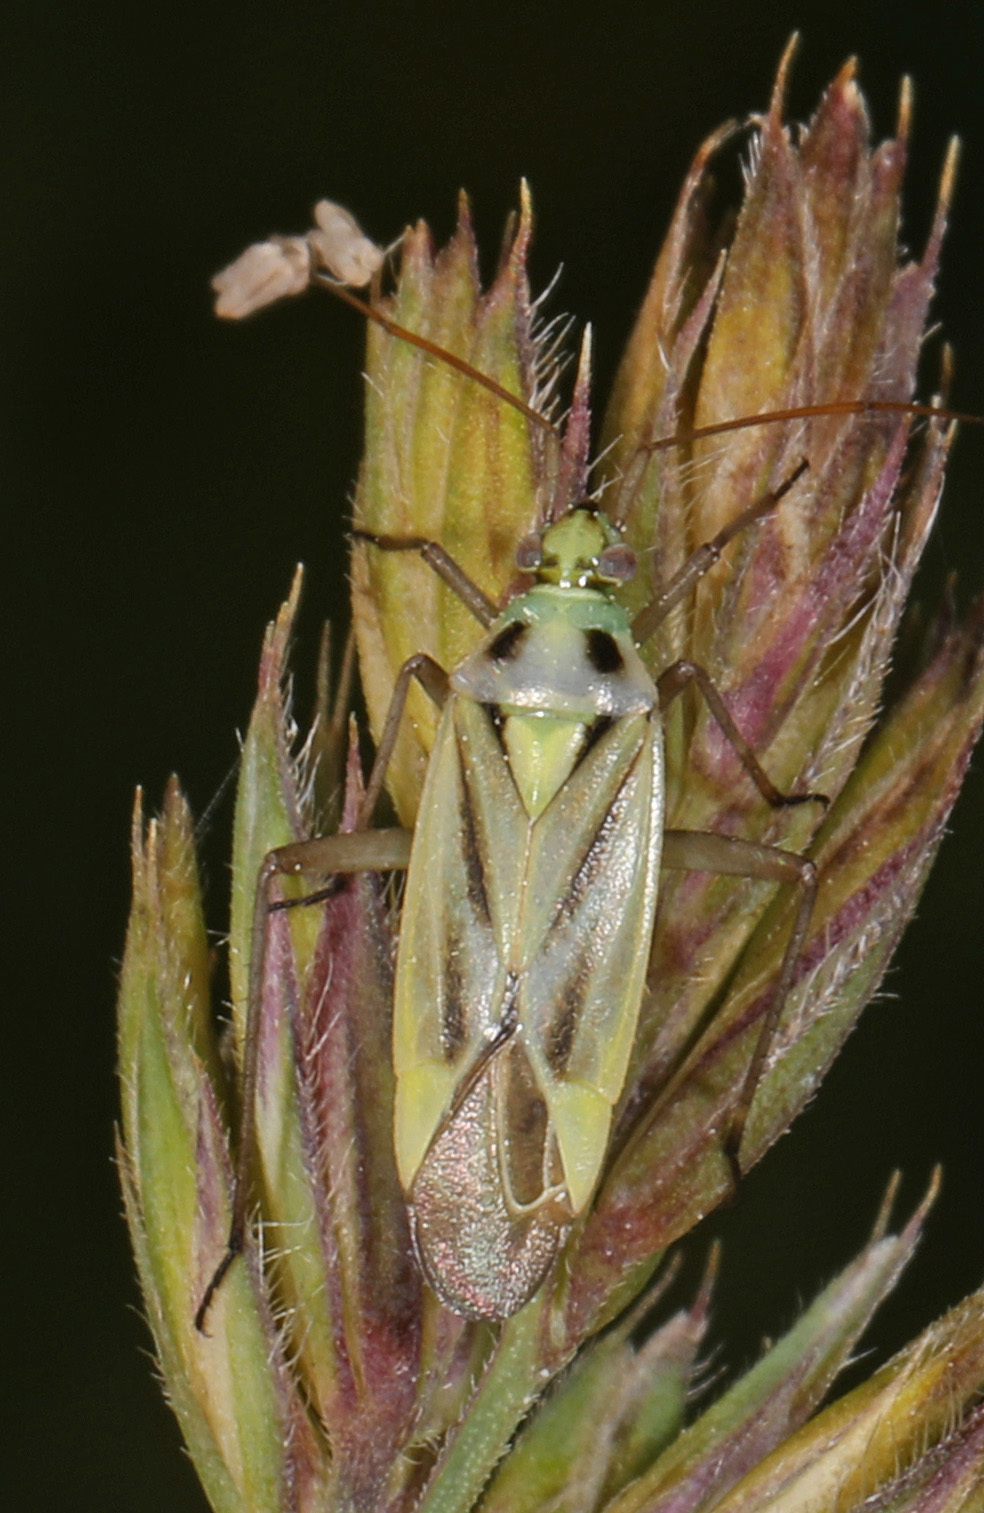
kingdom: Animalia
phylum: Arthropoda
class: Insecta
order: Hemiptera
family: Miridae
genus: Stenotus
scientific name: Stenotus binotatus
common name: Plant bug
